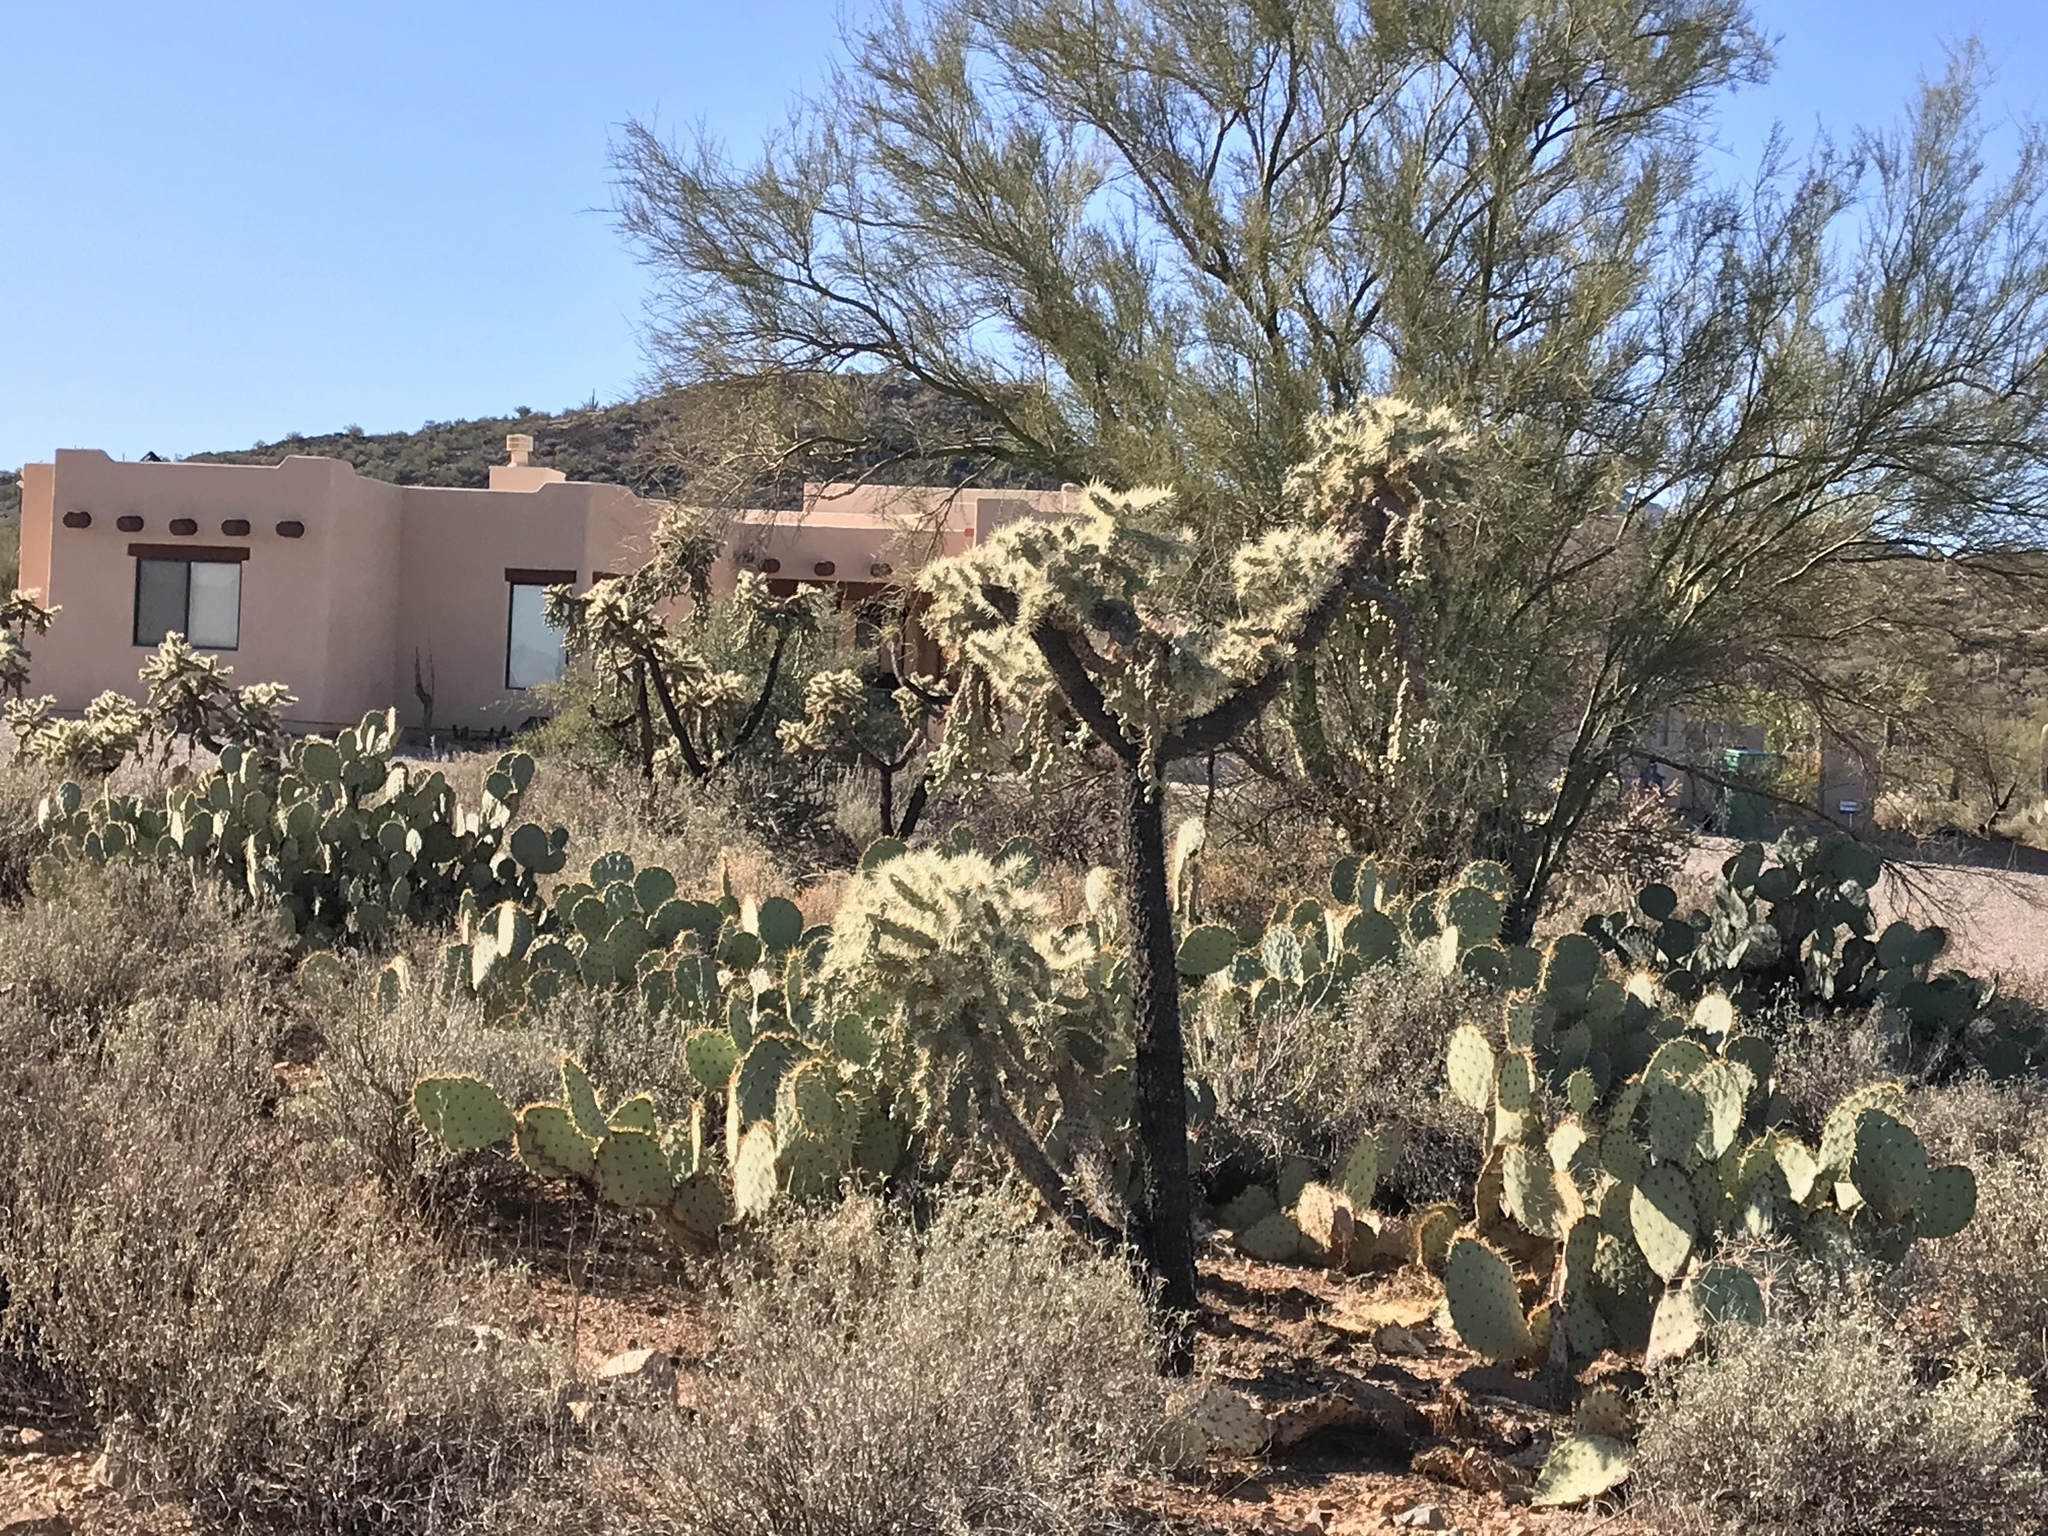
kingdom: Plantae
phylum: Tracheophyta
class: Magnoliopsida
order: Caryophyllales
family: Cactaceae
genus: Cylindropuntia
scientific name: Cylindropuntia fulgida
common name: Jumping cholla
